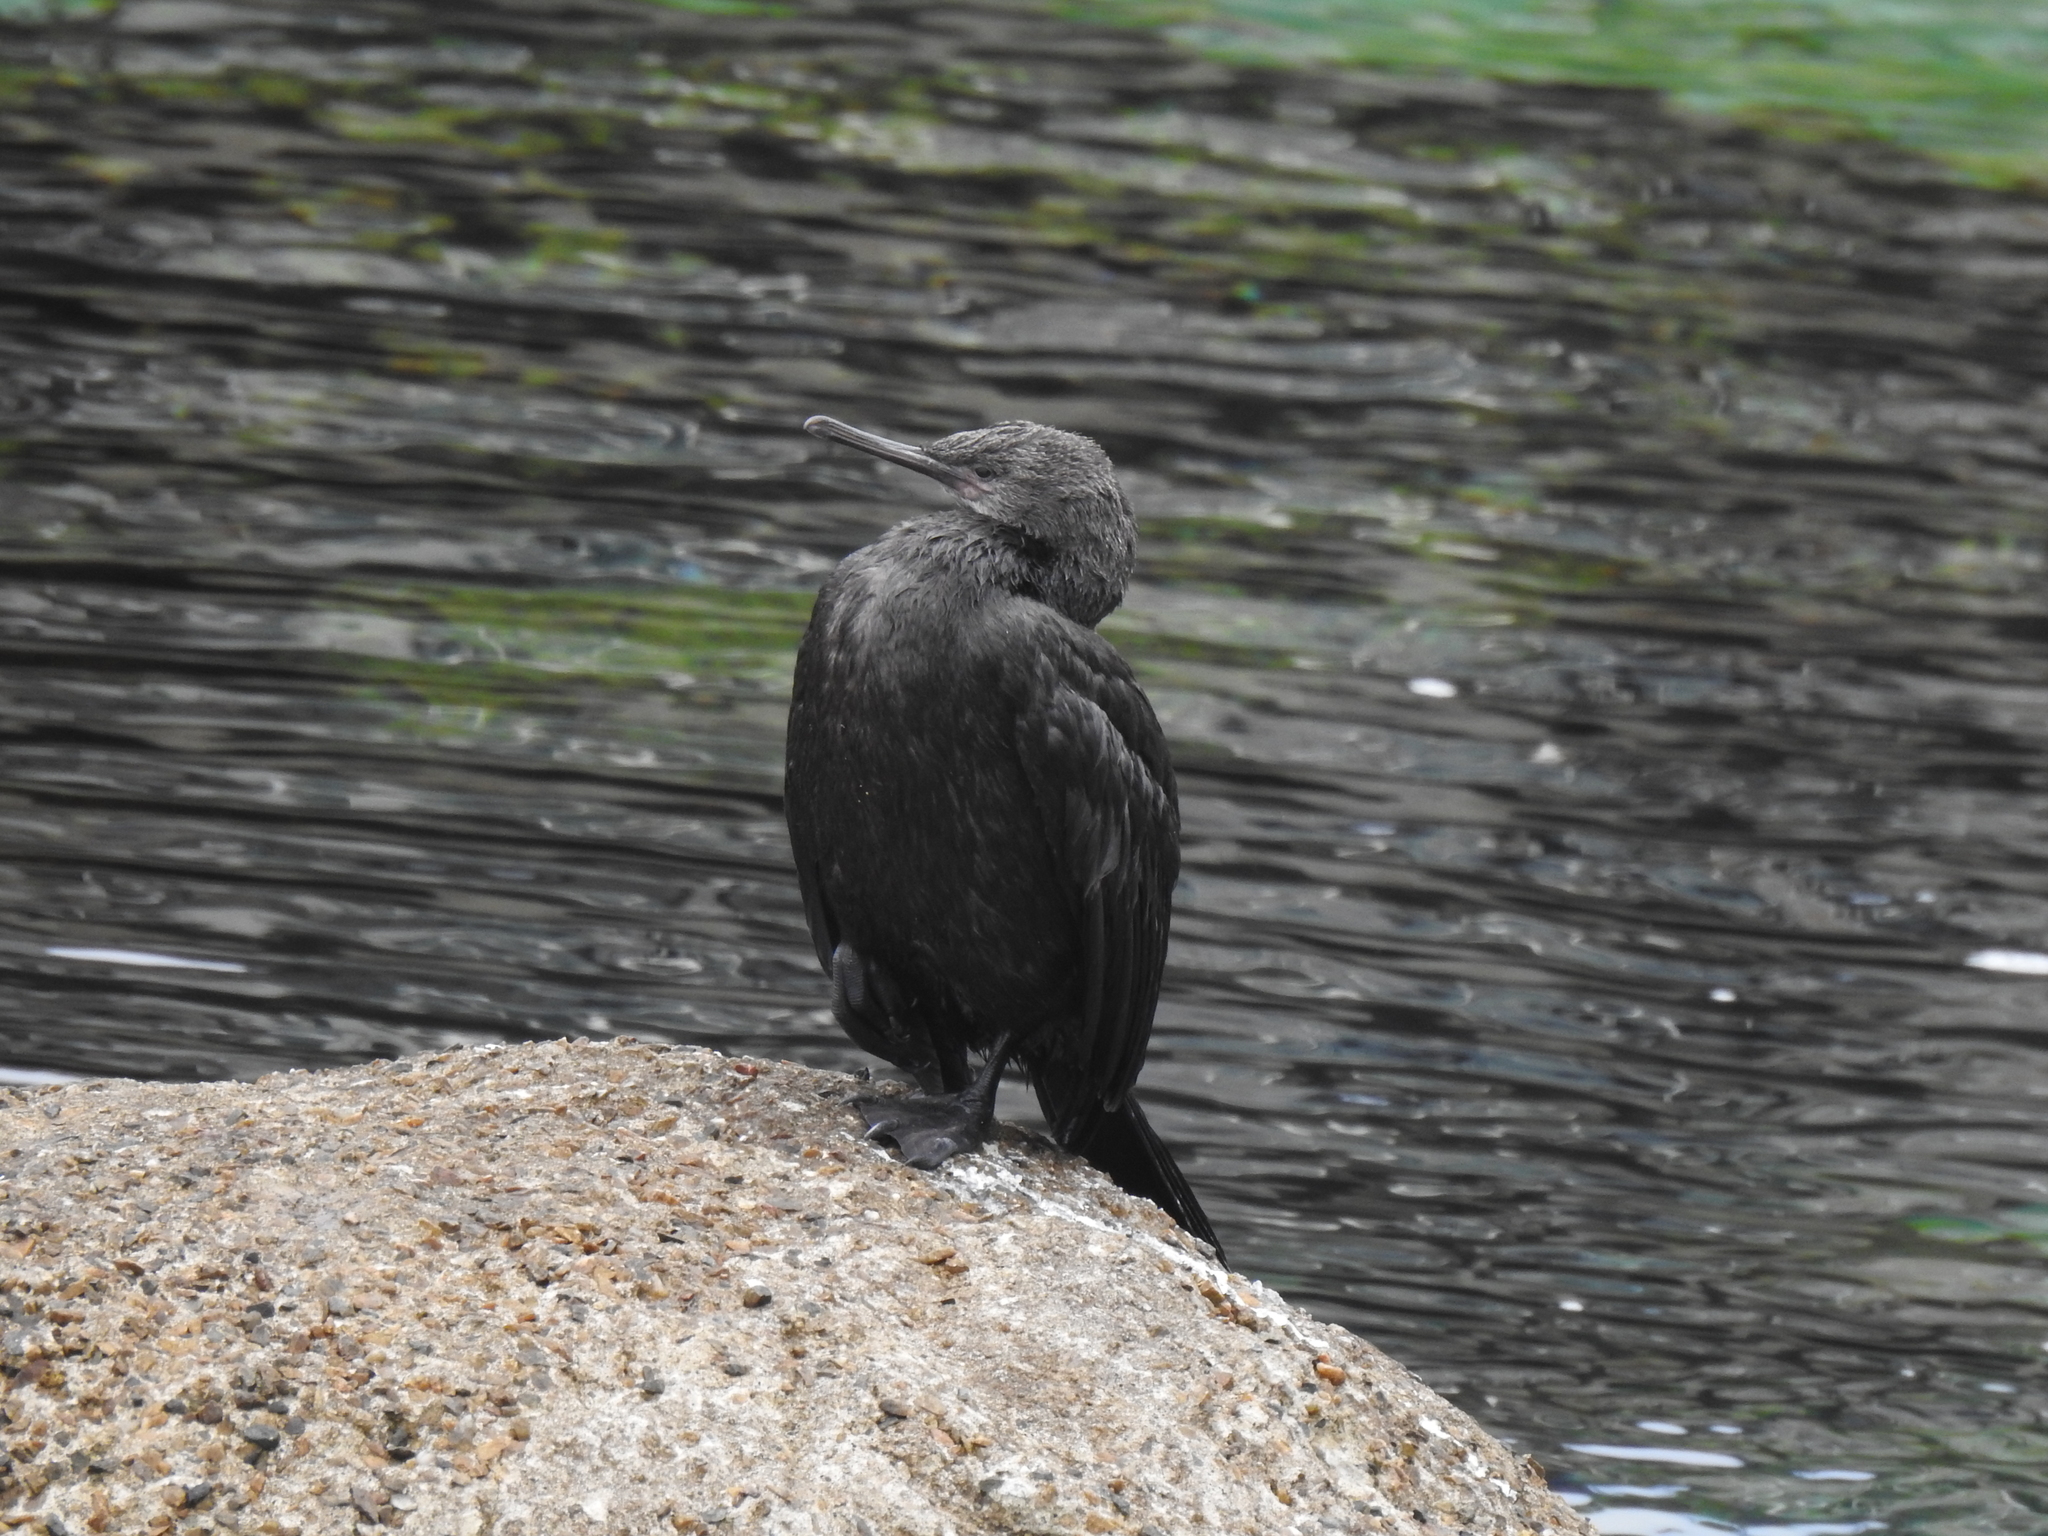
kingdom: Animalia
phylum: Chordata
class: Aves
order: Suliformes
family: Phalacrocoracidae
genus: Urile
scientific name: Urile penicillatus
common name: Brandt's cormorant
